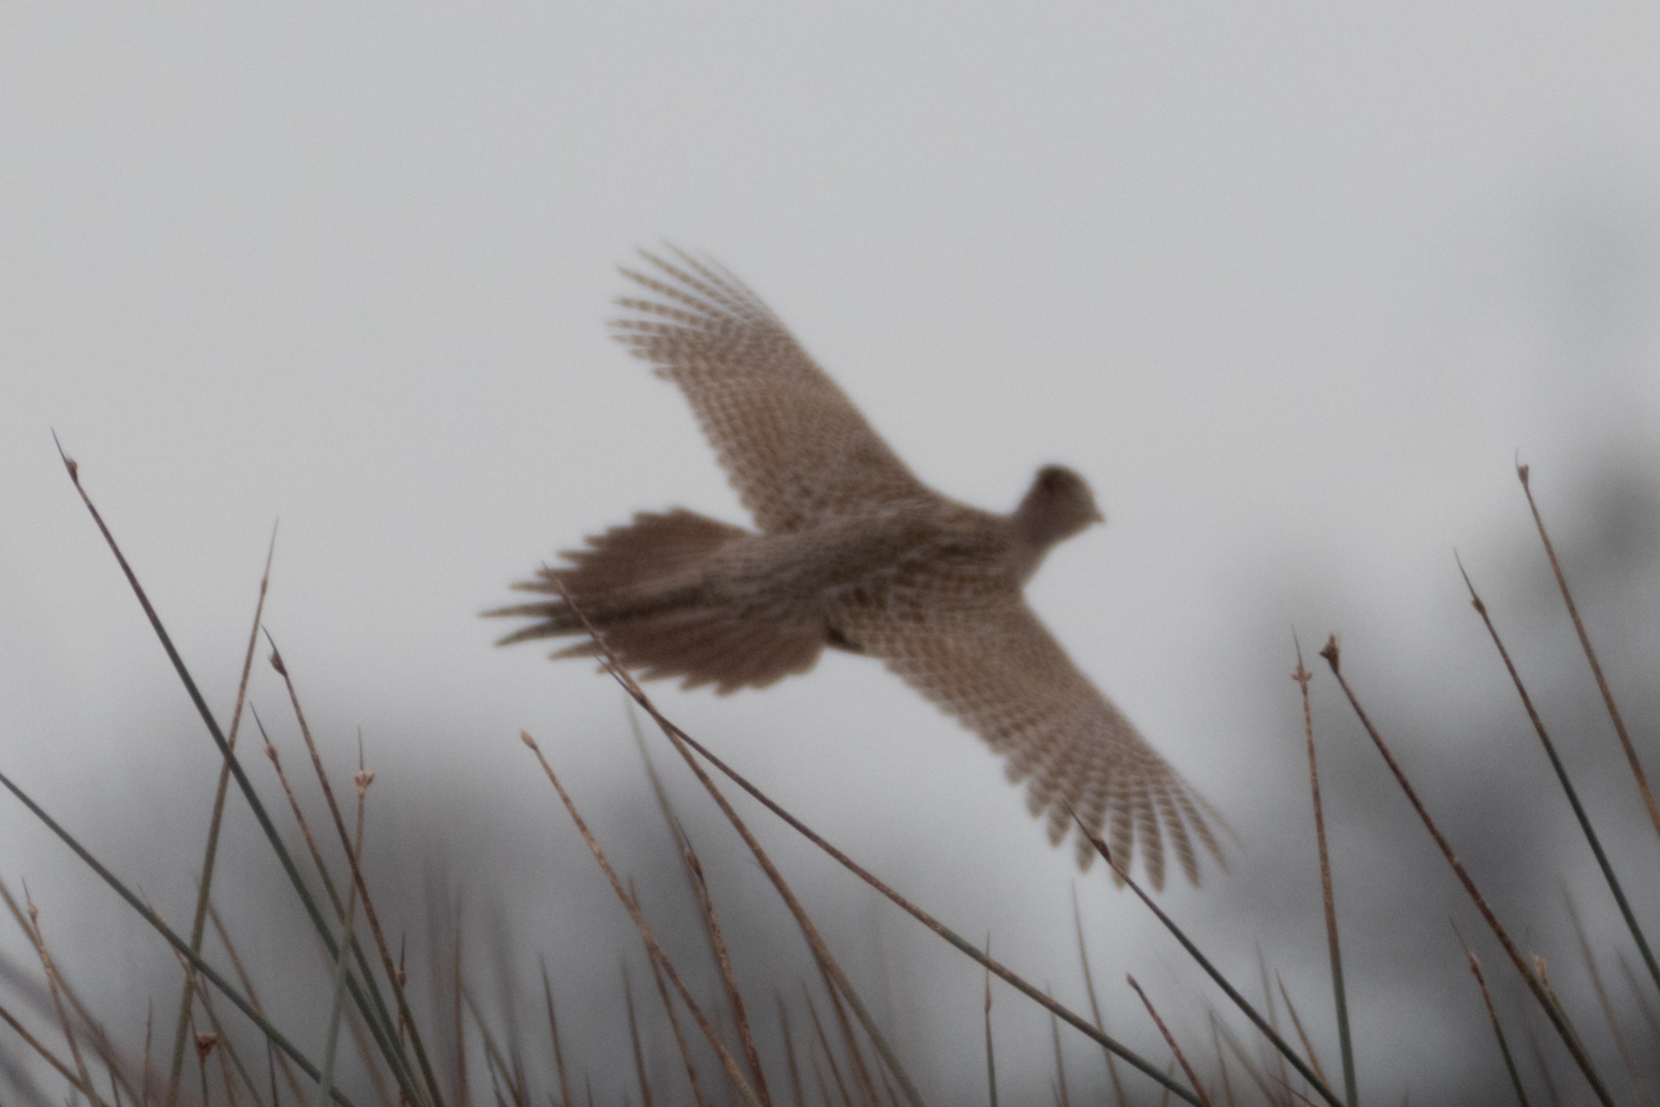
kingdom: Animalia
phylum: Chordata
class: Aves
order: Galliformes
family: Phasianidae
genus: Phasianus
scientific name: Phasianus colchicus
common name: Common pheasant
